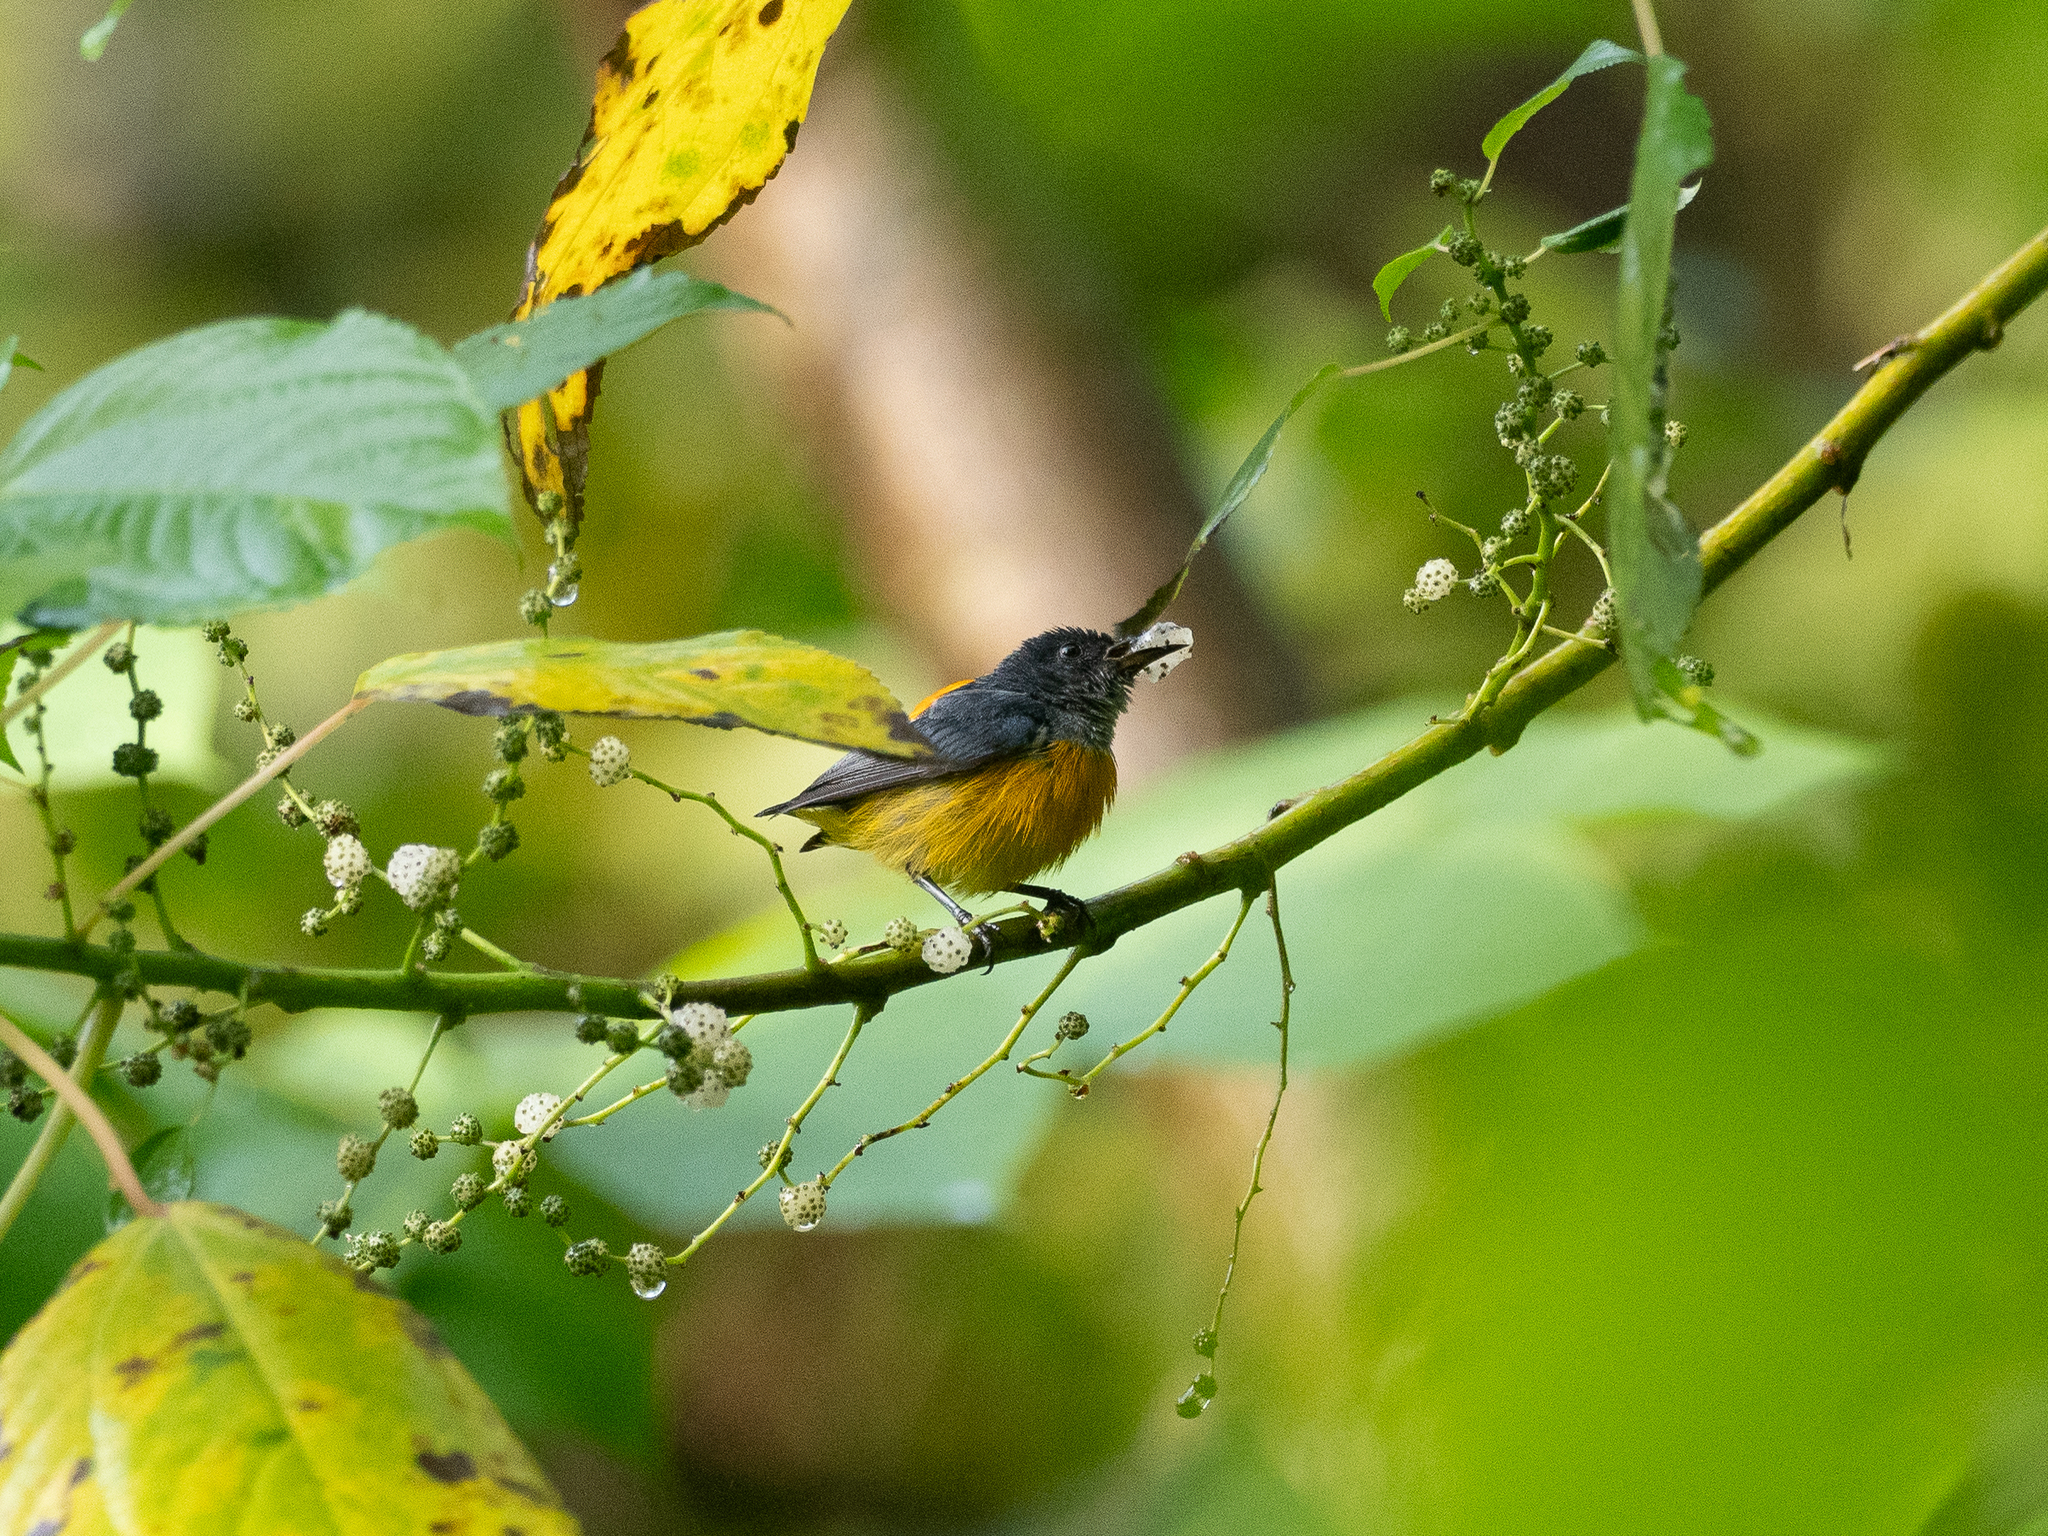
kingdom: Animalia
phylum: Chordata
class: Aves
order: Passeriformes
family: Dicaeidae
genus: Dicaeum
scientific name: Dicaeum trigonostigma
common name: Orange-bellied flowerpecker
